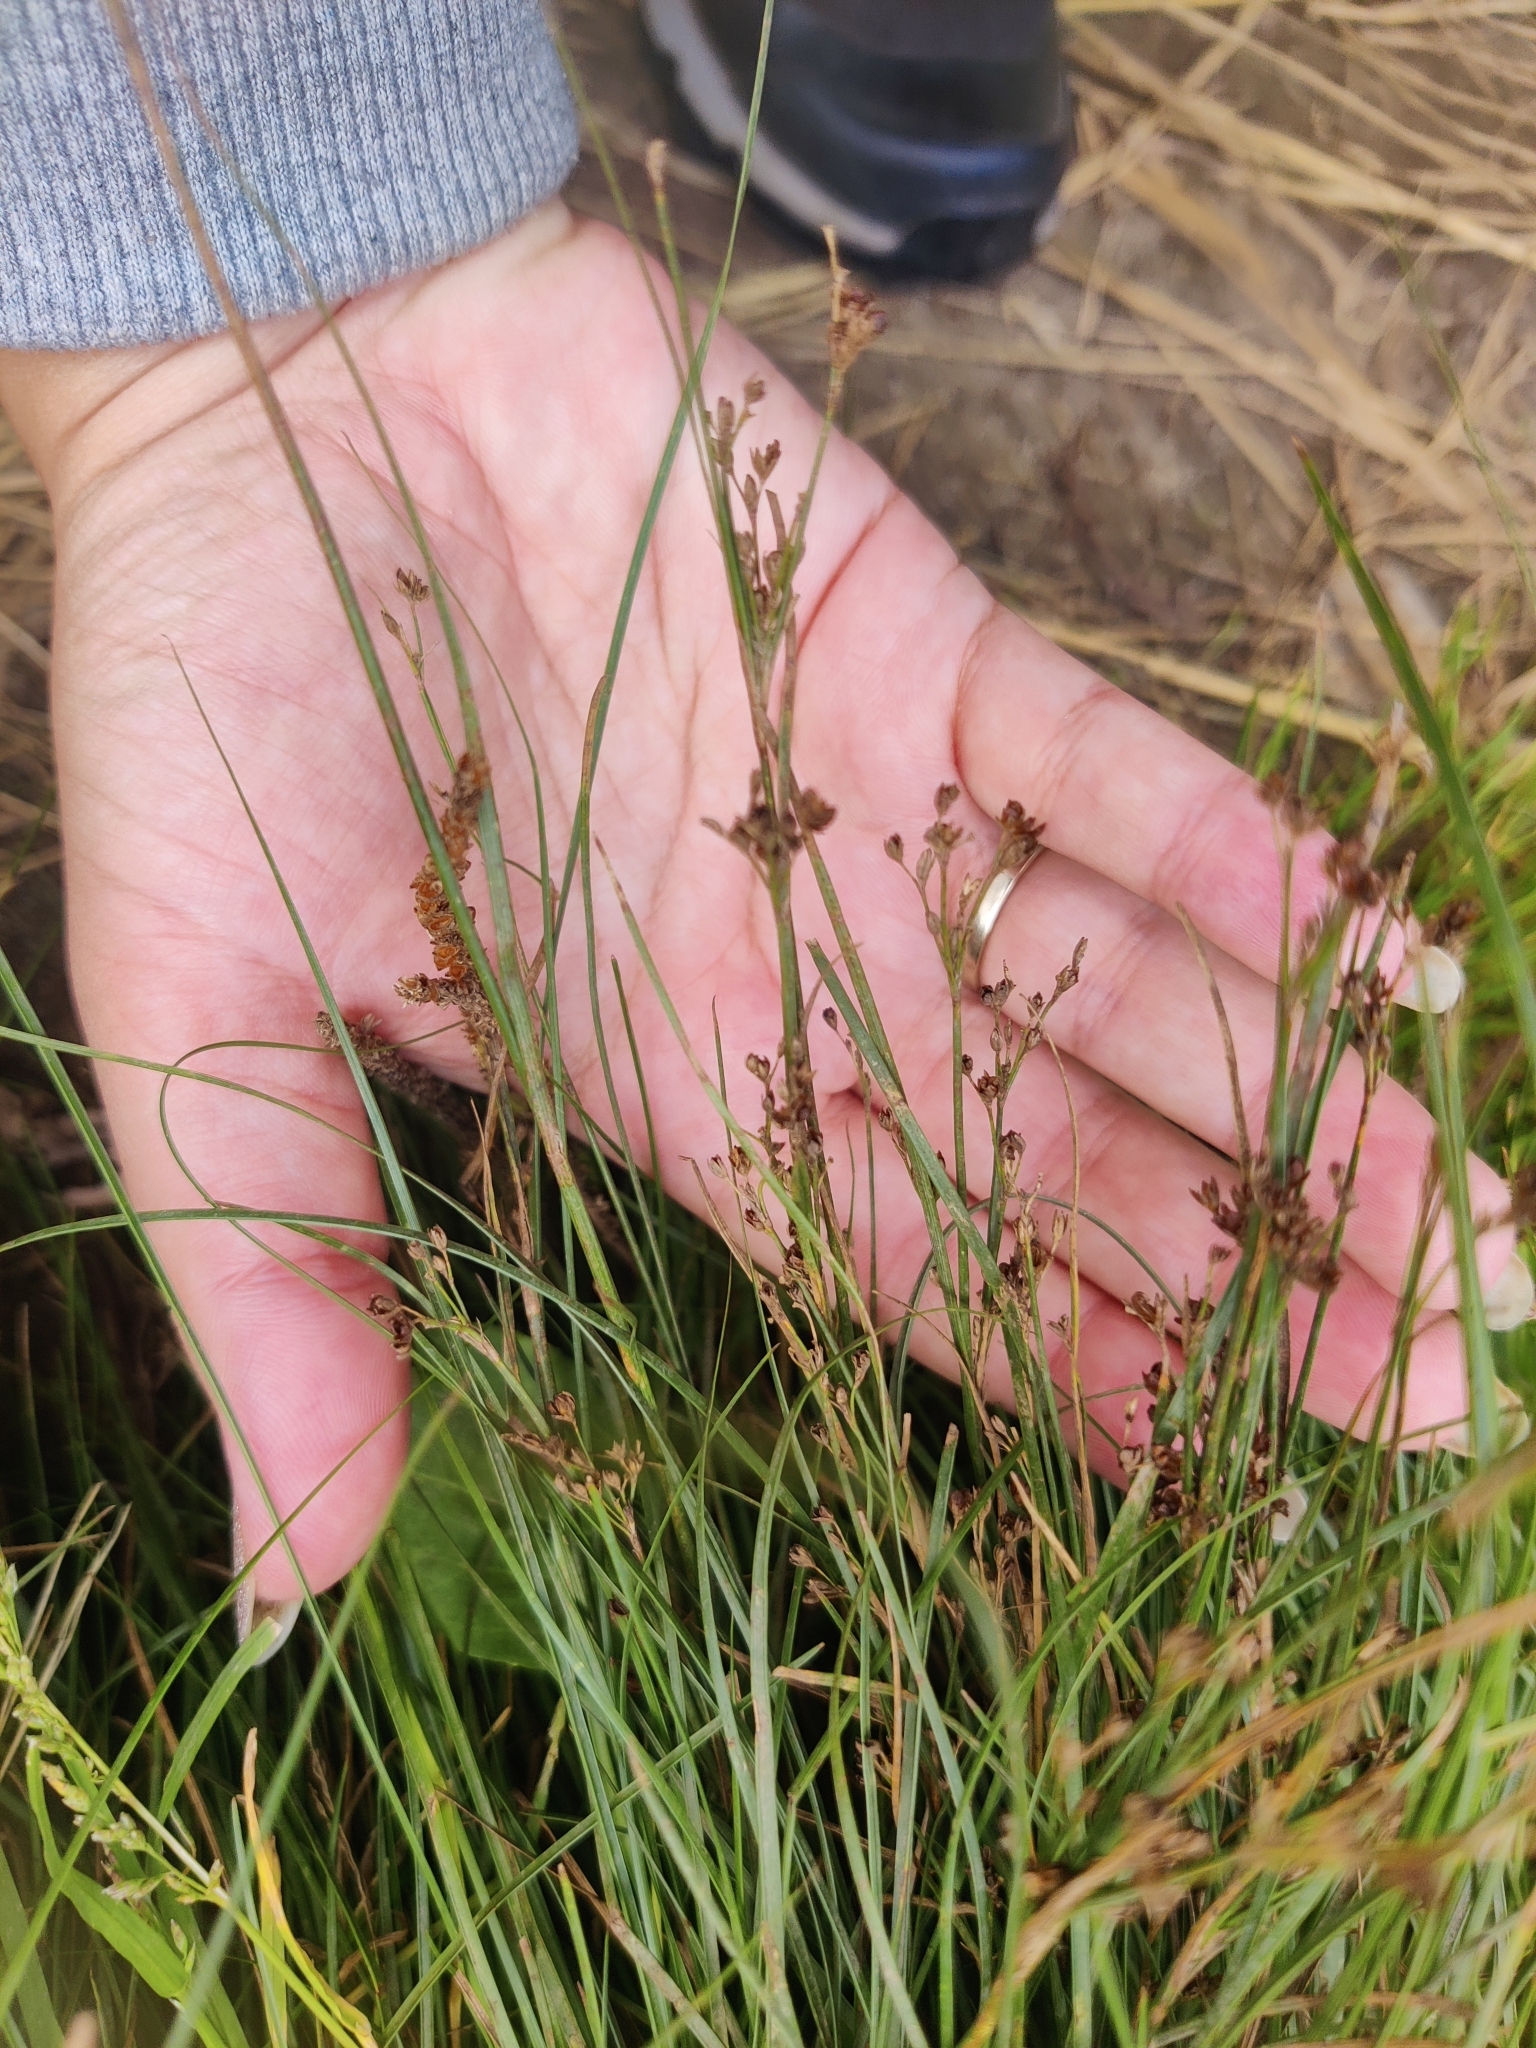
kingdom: Plantae
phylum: Tracheophyta
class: Liliopsida
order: Poales
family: Juncaceae
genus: Juncus
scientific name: Juncus compressus
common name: Round-fruited rush
